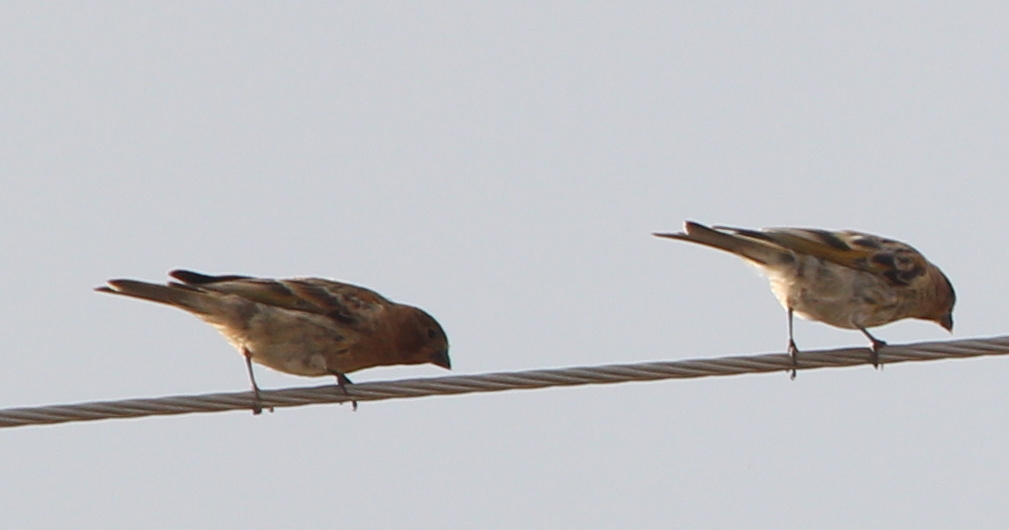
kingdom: Animalia
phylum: Chordata
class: Aves
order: Passeriformes
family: Fringillidae
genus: Serinus
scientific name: Serinus pusillus
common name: Red-fronted serin
